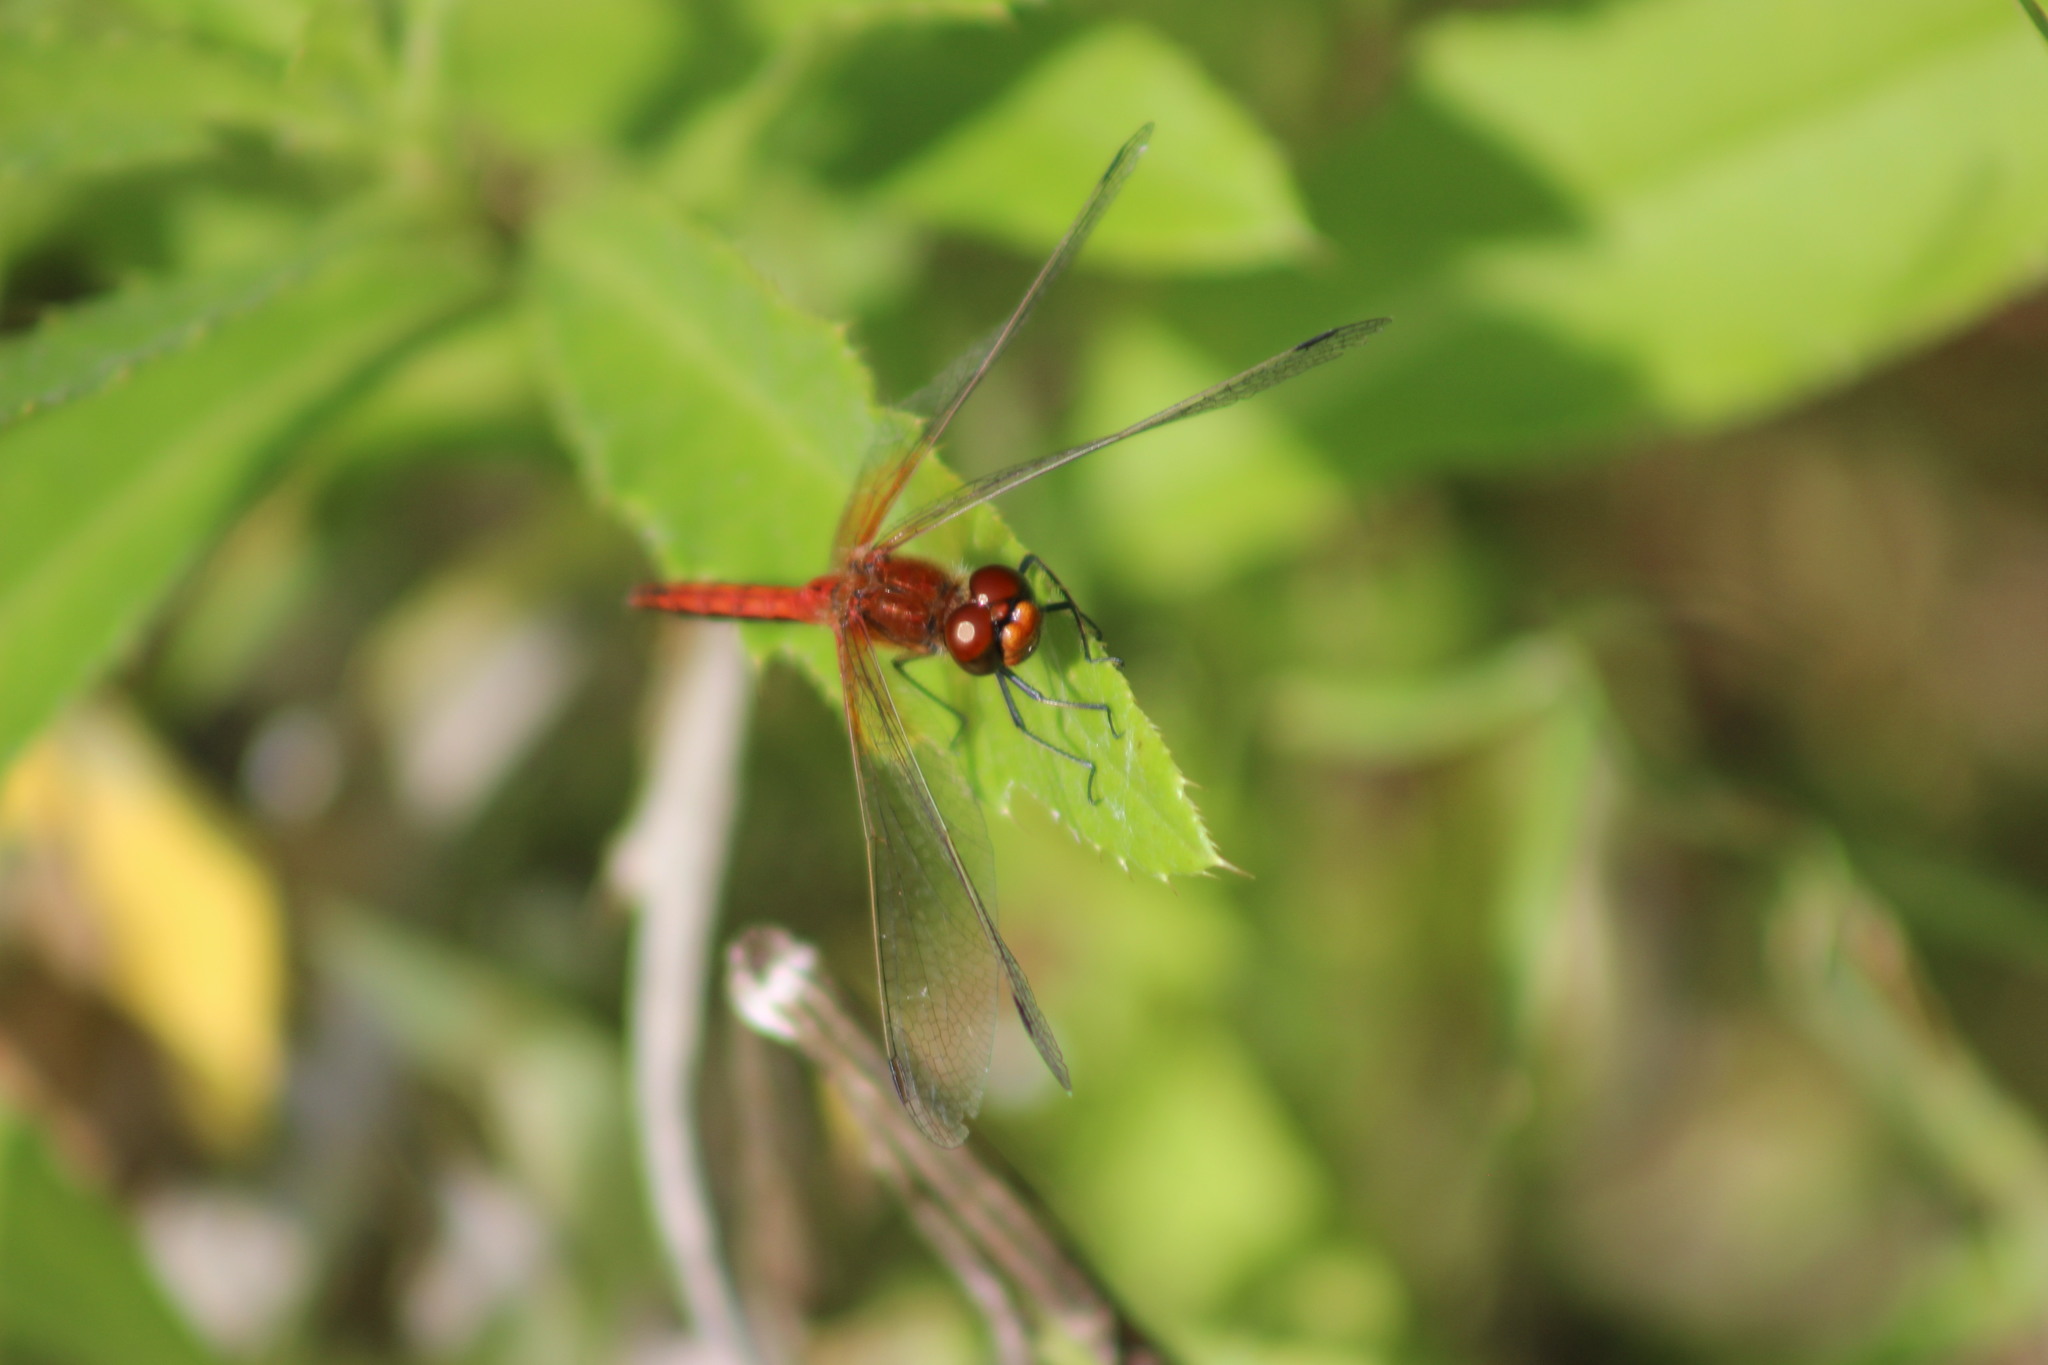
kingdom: Animalia
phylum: Arthropoda
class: Insecta
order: Odonata
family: Libellulidae
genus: Sympetrum
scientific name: Sympetrum flaveolum
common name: Yellow-winged darter
